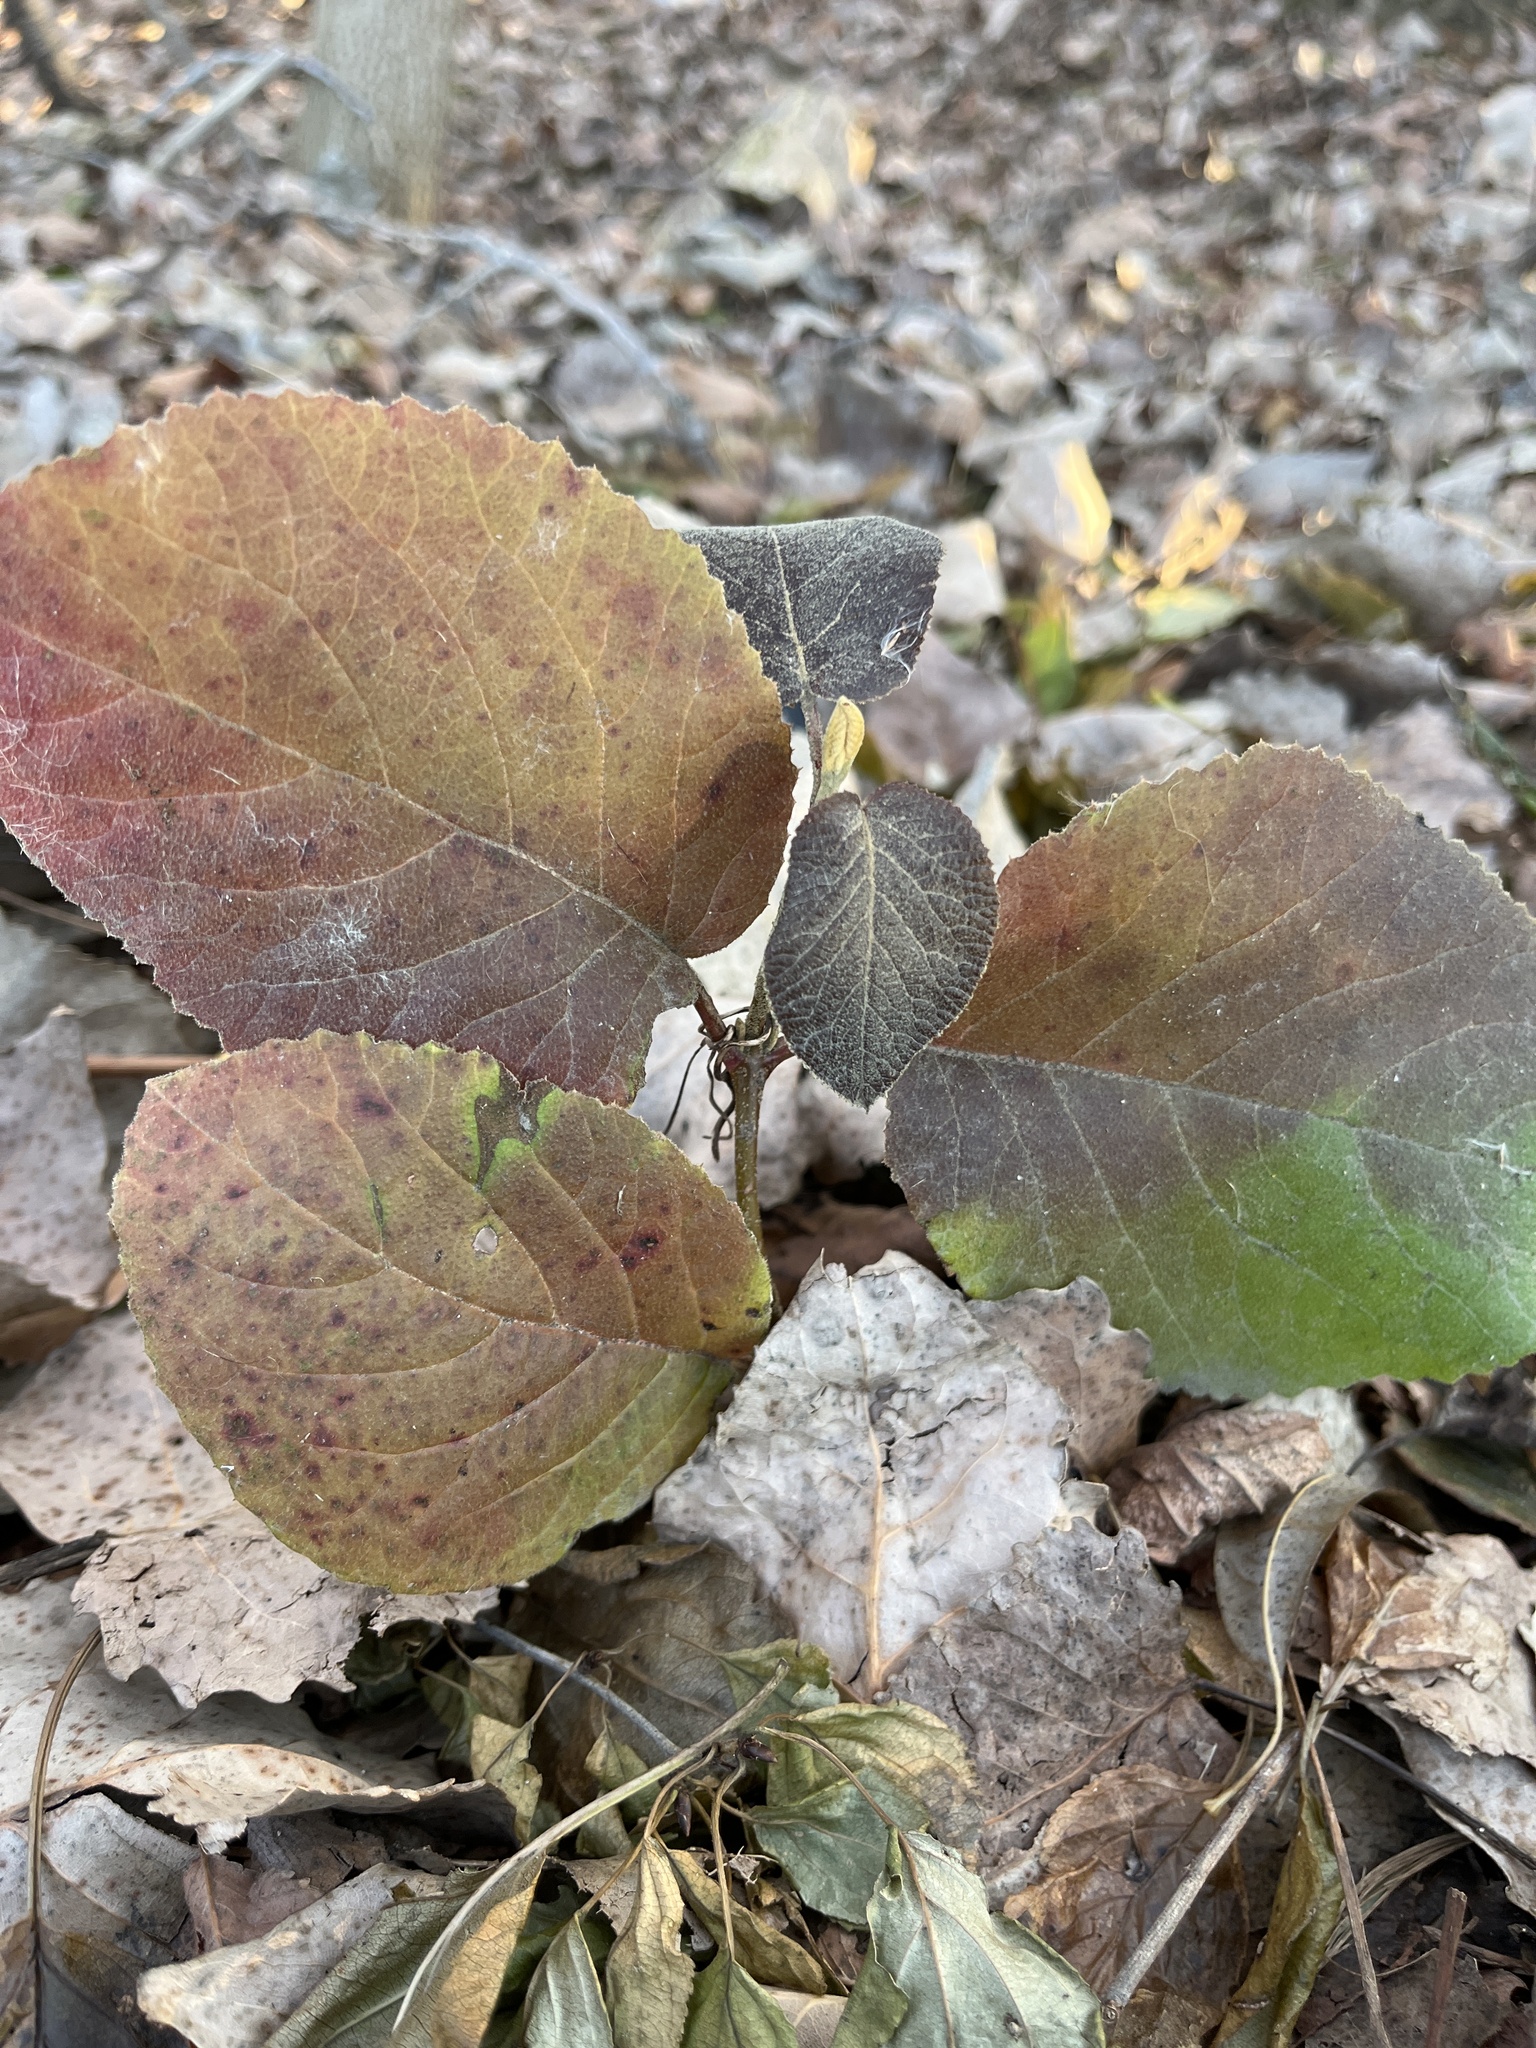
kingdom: Plantae
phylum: Tracheophyta
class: Magnoliopsida
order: Dipsacales
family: Viburnaceae
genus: Viburnum
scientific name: Viburnum lantana
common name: Wayfaring tree
